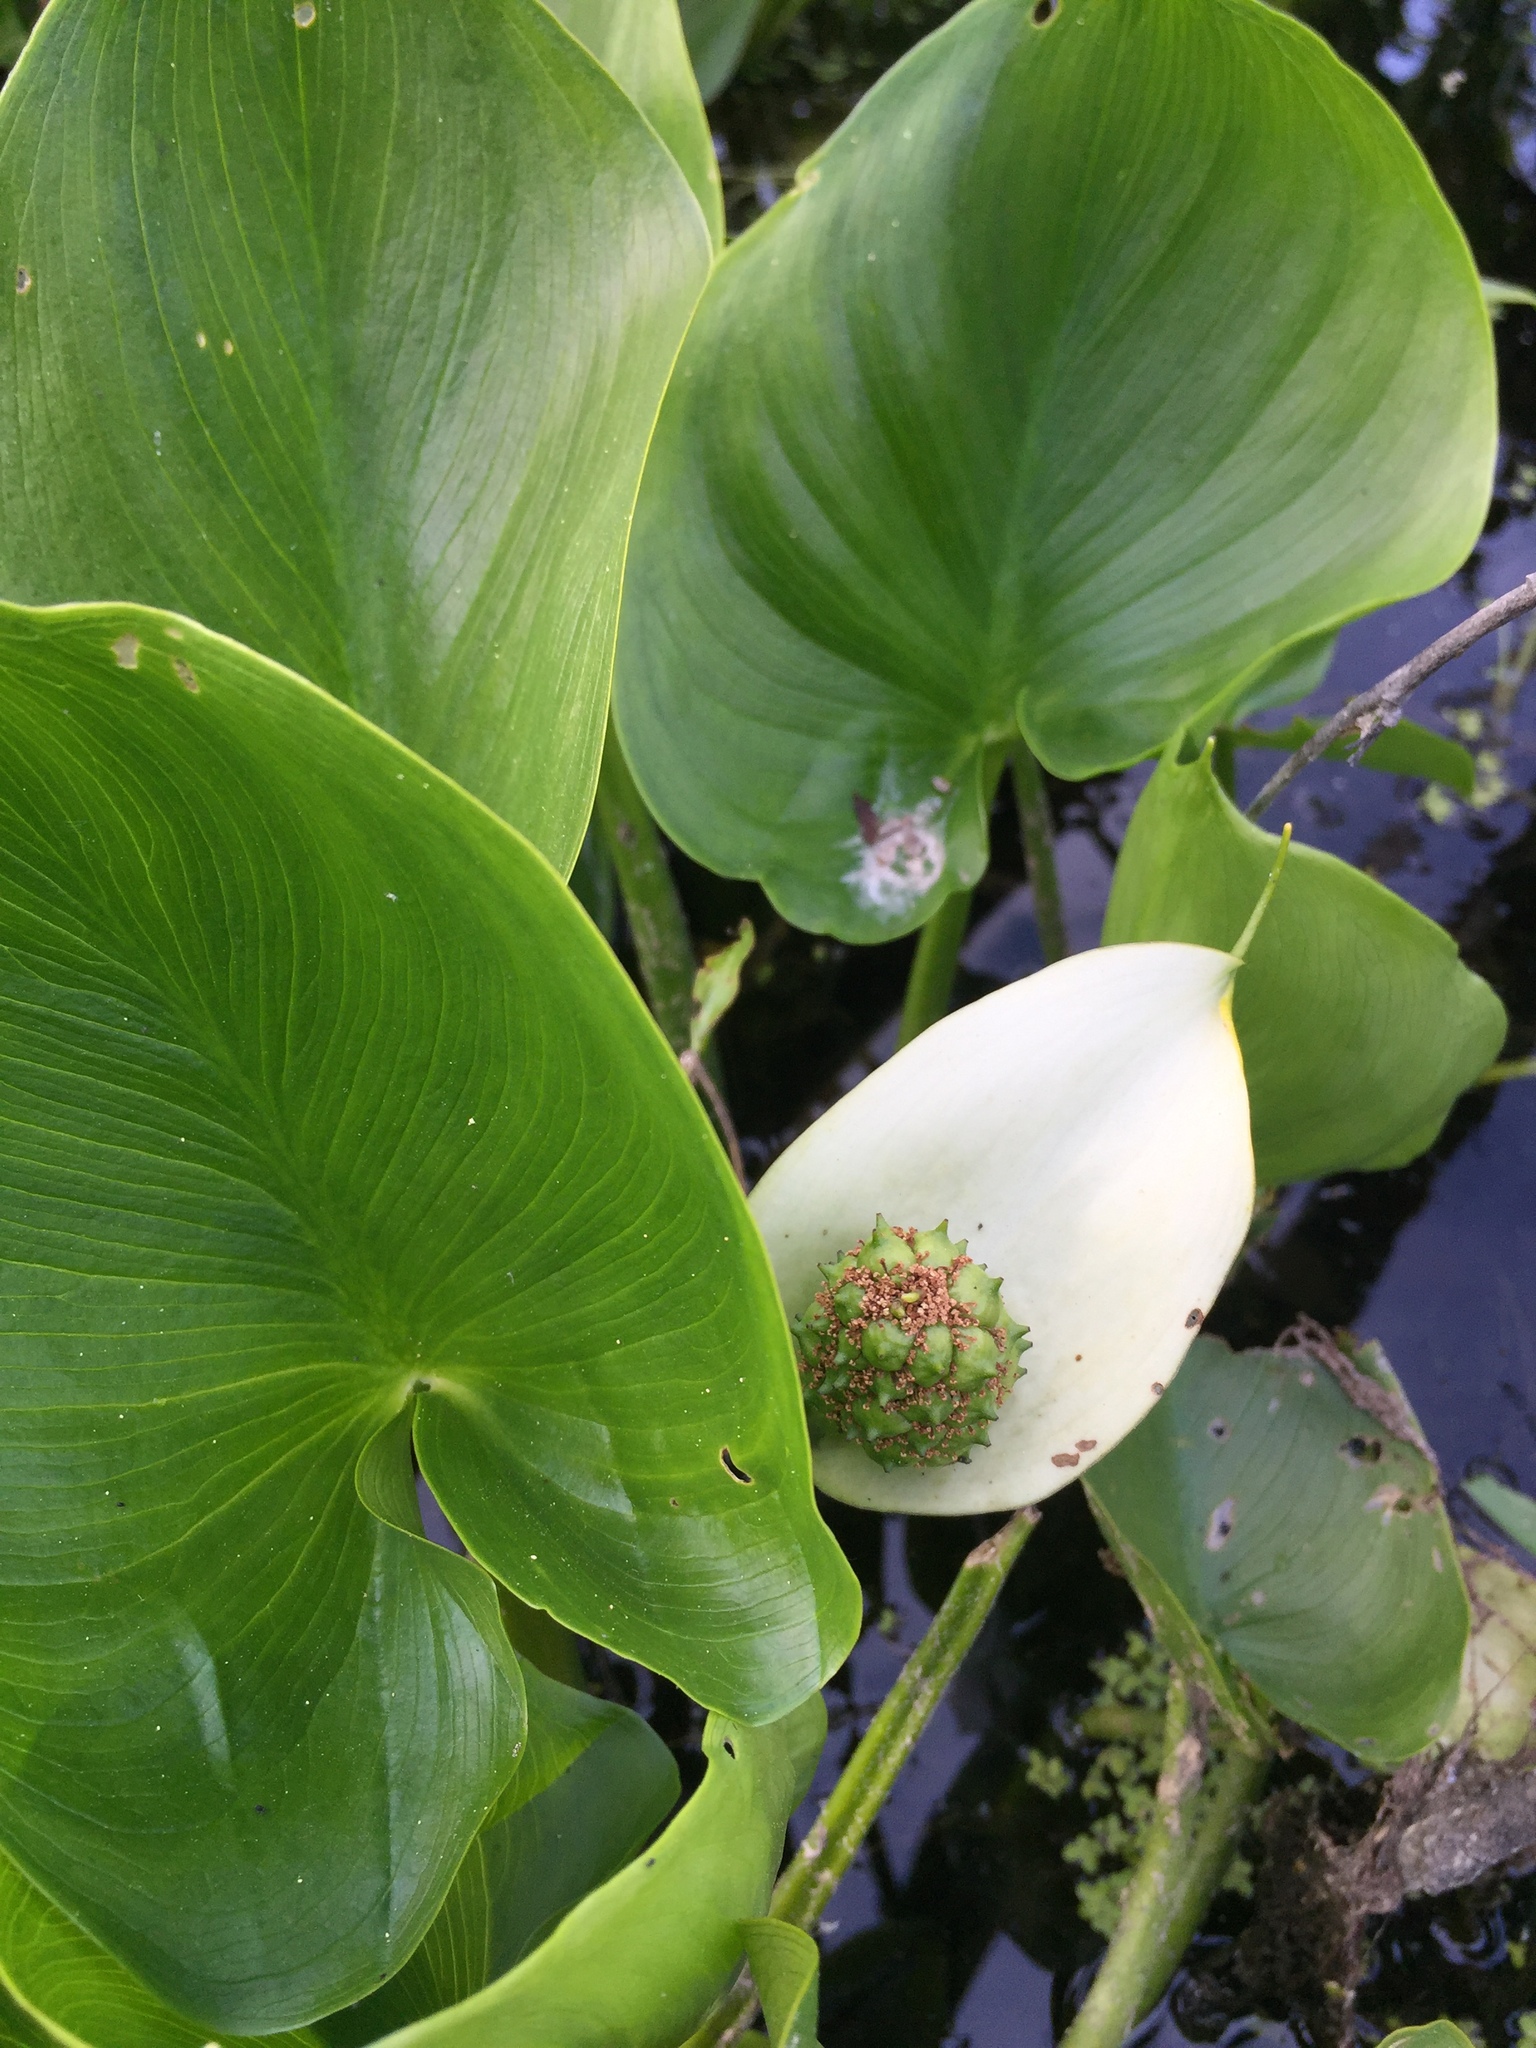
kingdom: Plantae
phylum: Tracheophyta
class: Liliopsida
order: Alismatales
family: Araceae
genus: Calla
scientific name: Calla palustris
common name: Bog arum
